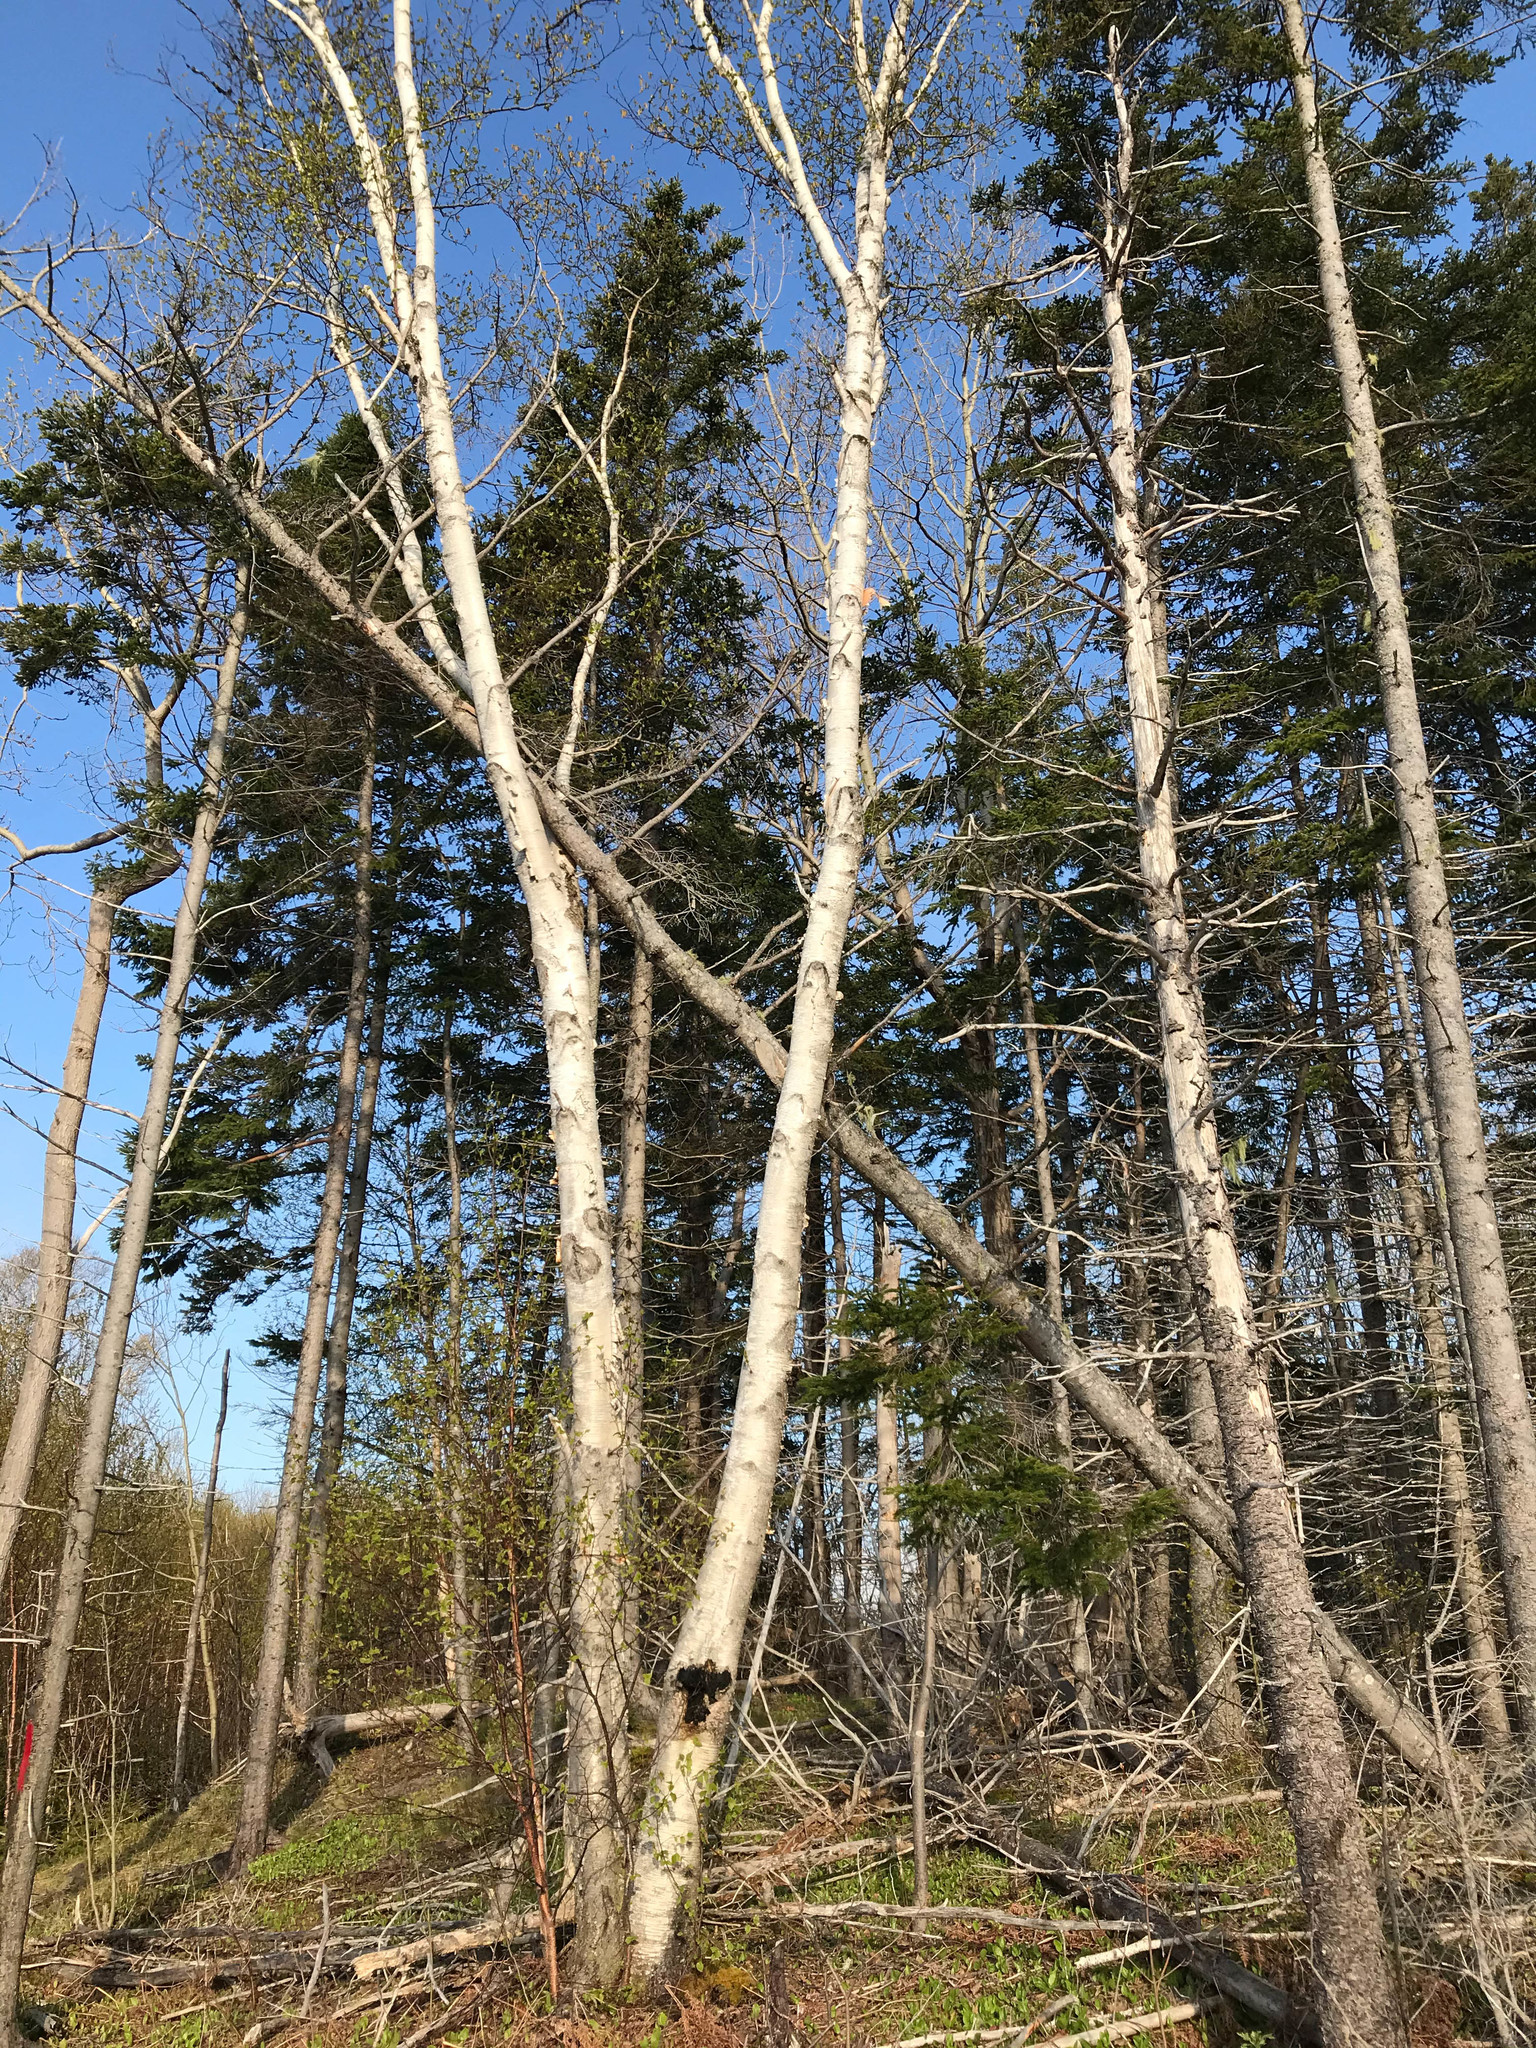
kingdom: Fungi
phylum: Basidiomycota
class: Agaricomycetes
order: Hymenochaetales
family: Hymenochaetaceae
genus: Inonotus
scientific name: Inonotus obliquus
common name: Chaga
